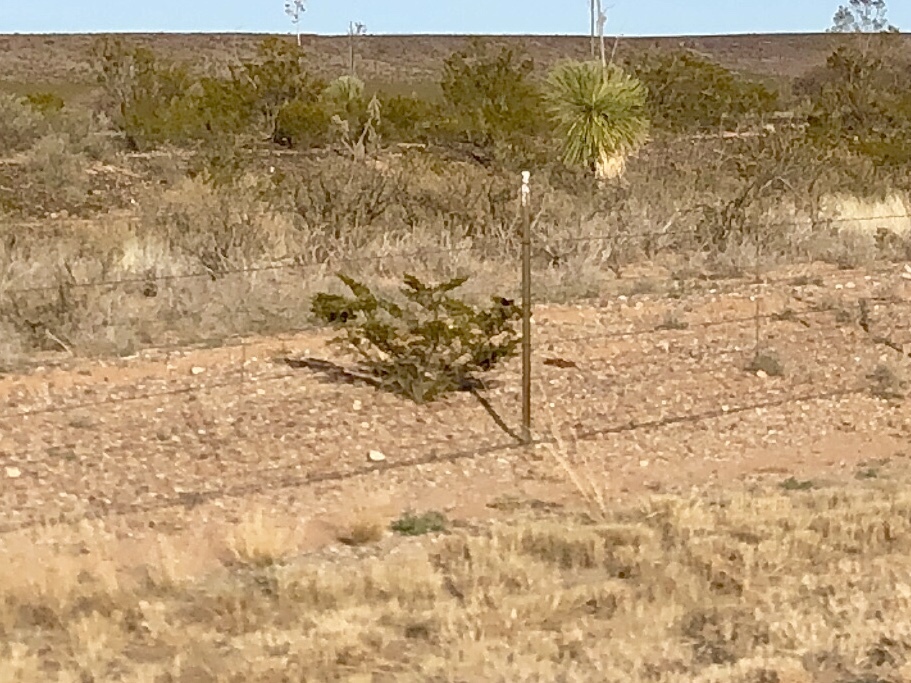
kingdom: Plantae
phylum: Tracheophyta
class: Magnoliopsida
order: Zygophyllales
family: Zygophyllaceae
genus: Larrea
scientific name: Larrea tridentata
